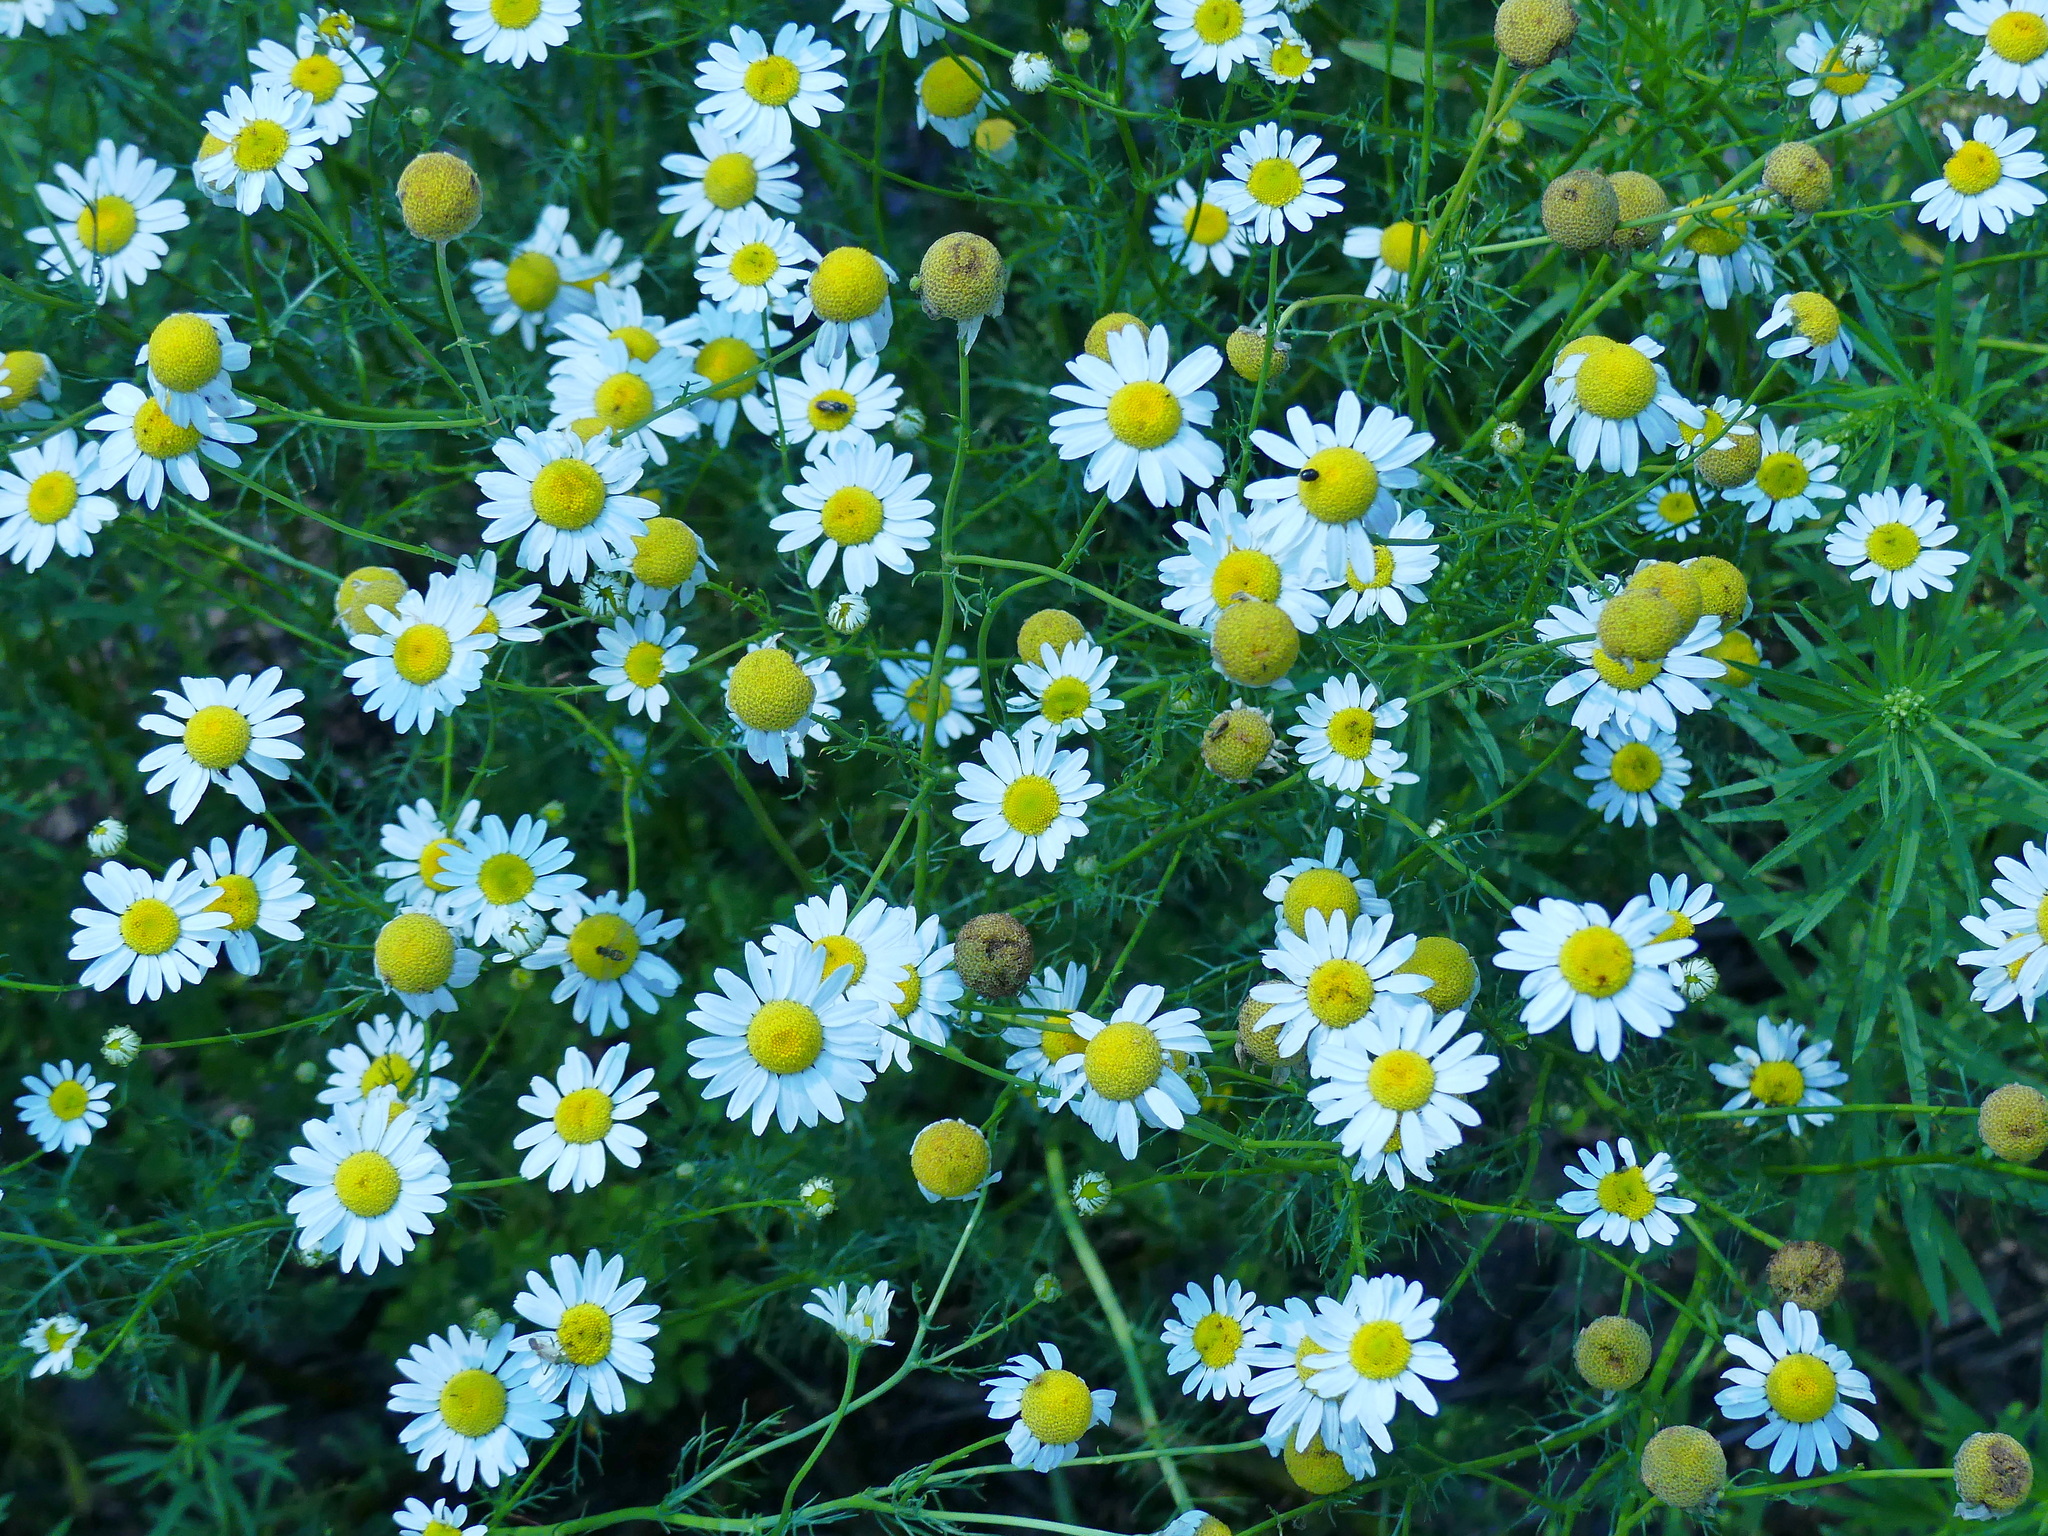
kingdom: Plantae
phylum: Tracheophyta
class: Magnoliopsida
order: Asterales
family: Asteraceae
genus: Tripleurospermum
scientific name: Tripleurospermum inodorum
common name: Scentless mayweed
